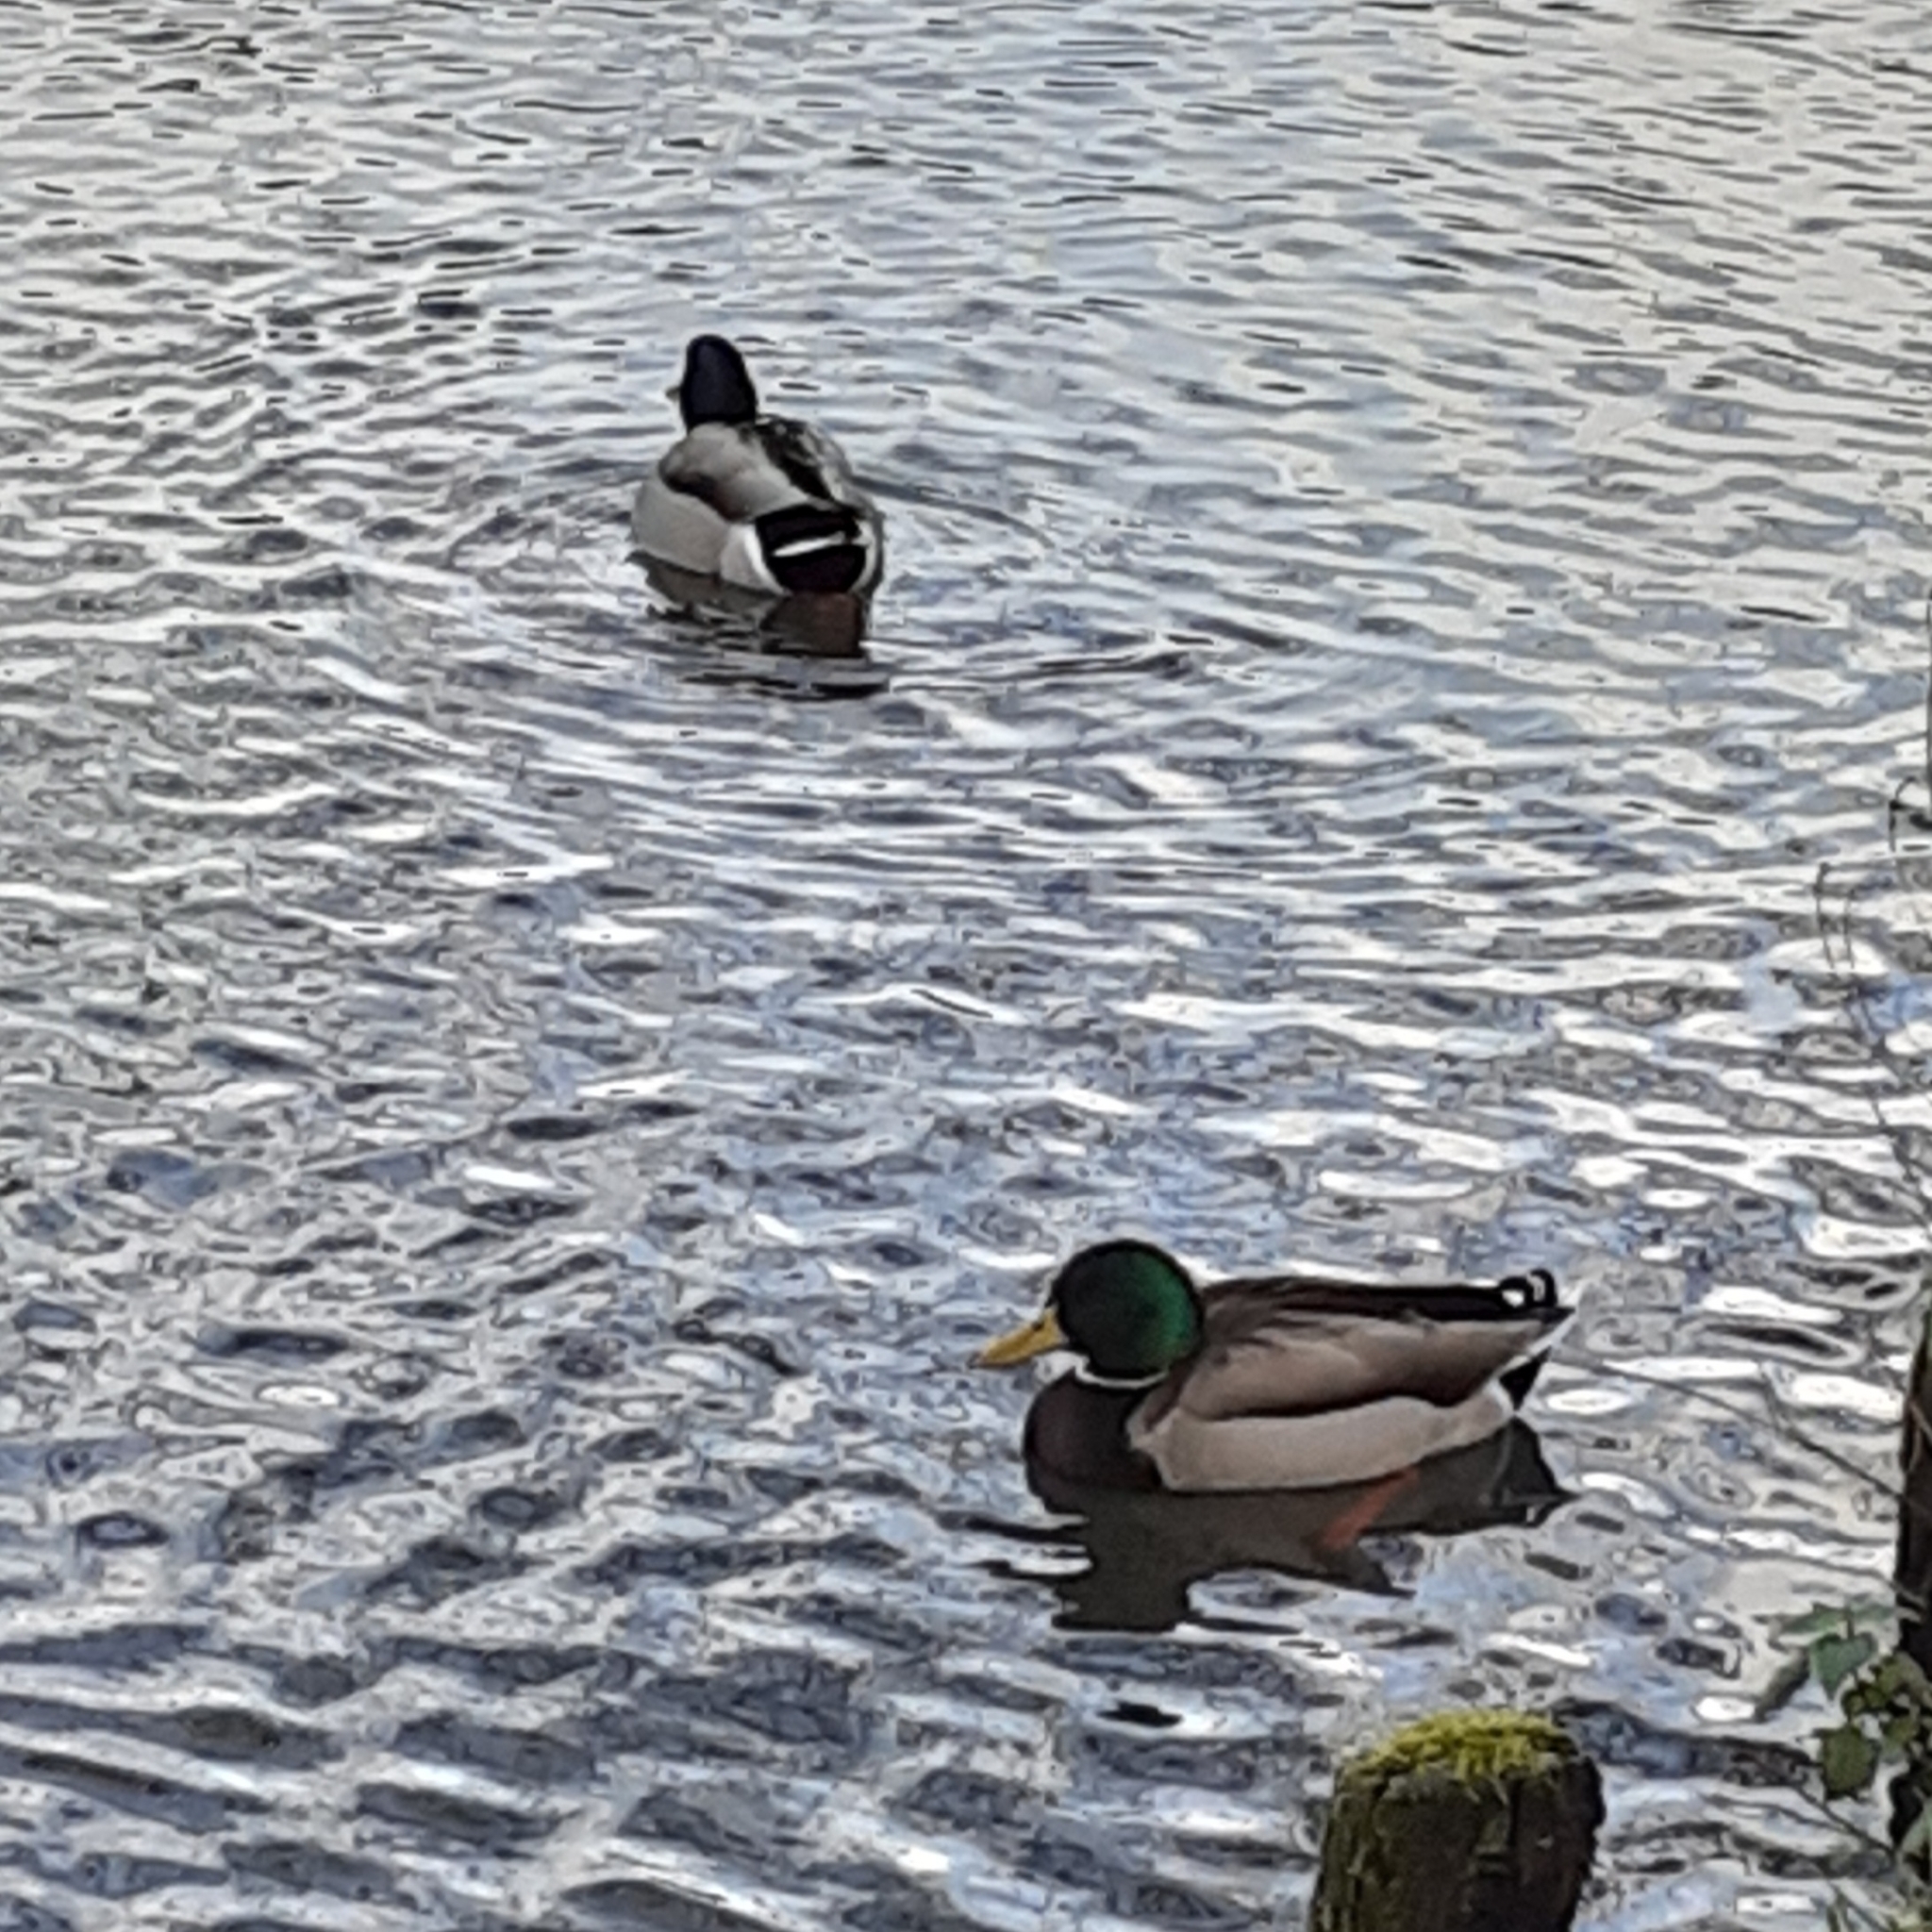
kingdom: Animalia
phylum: Chordata
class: Aves
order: Anseriformes
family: Anatidae
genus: Anas
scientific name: Anas platyrhynchos
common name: Mallard
